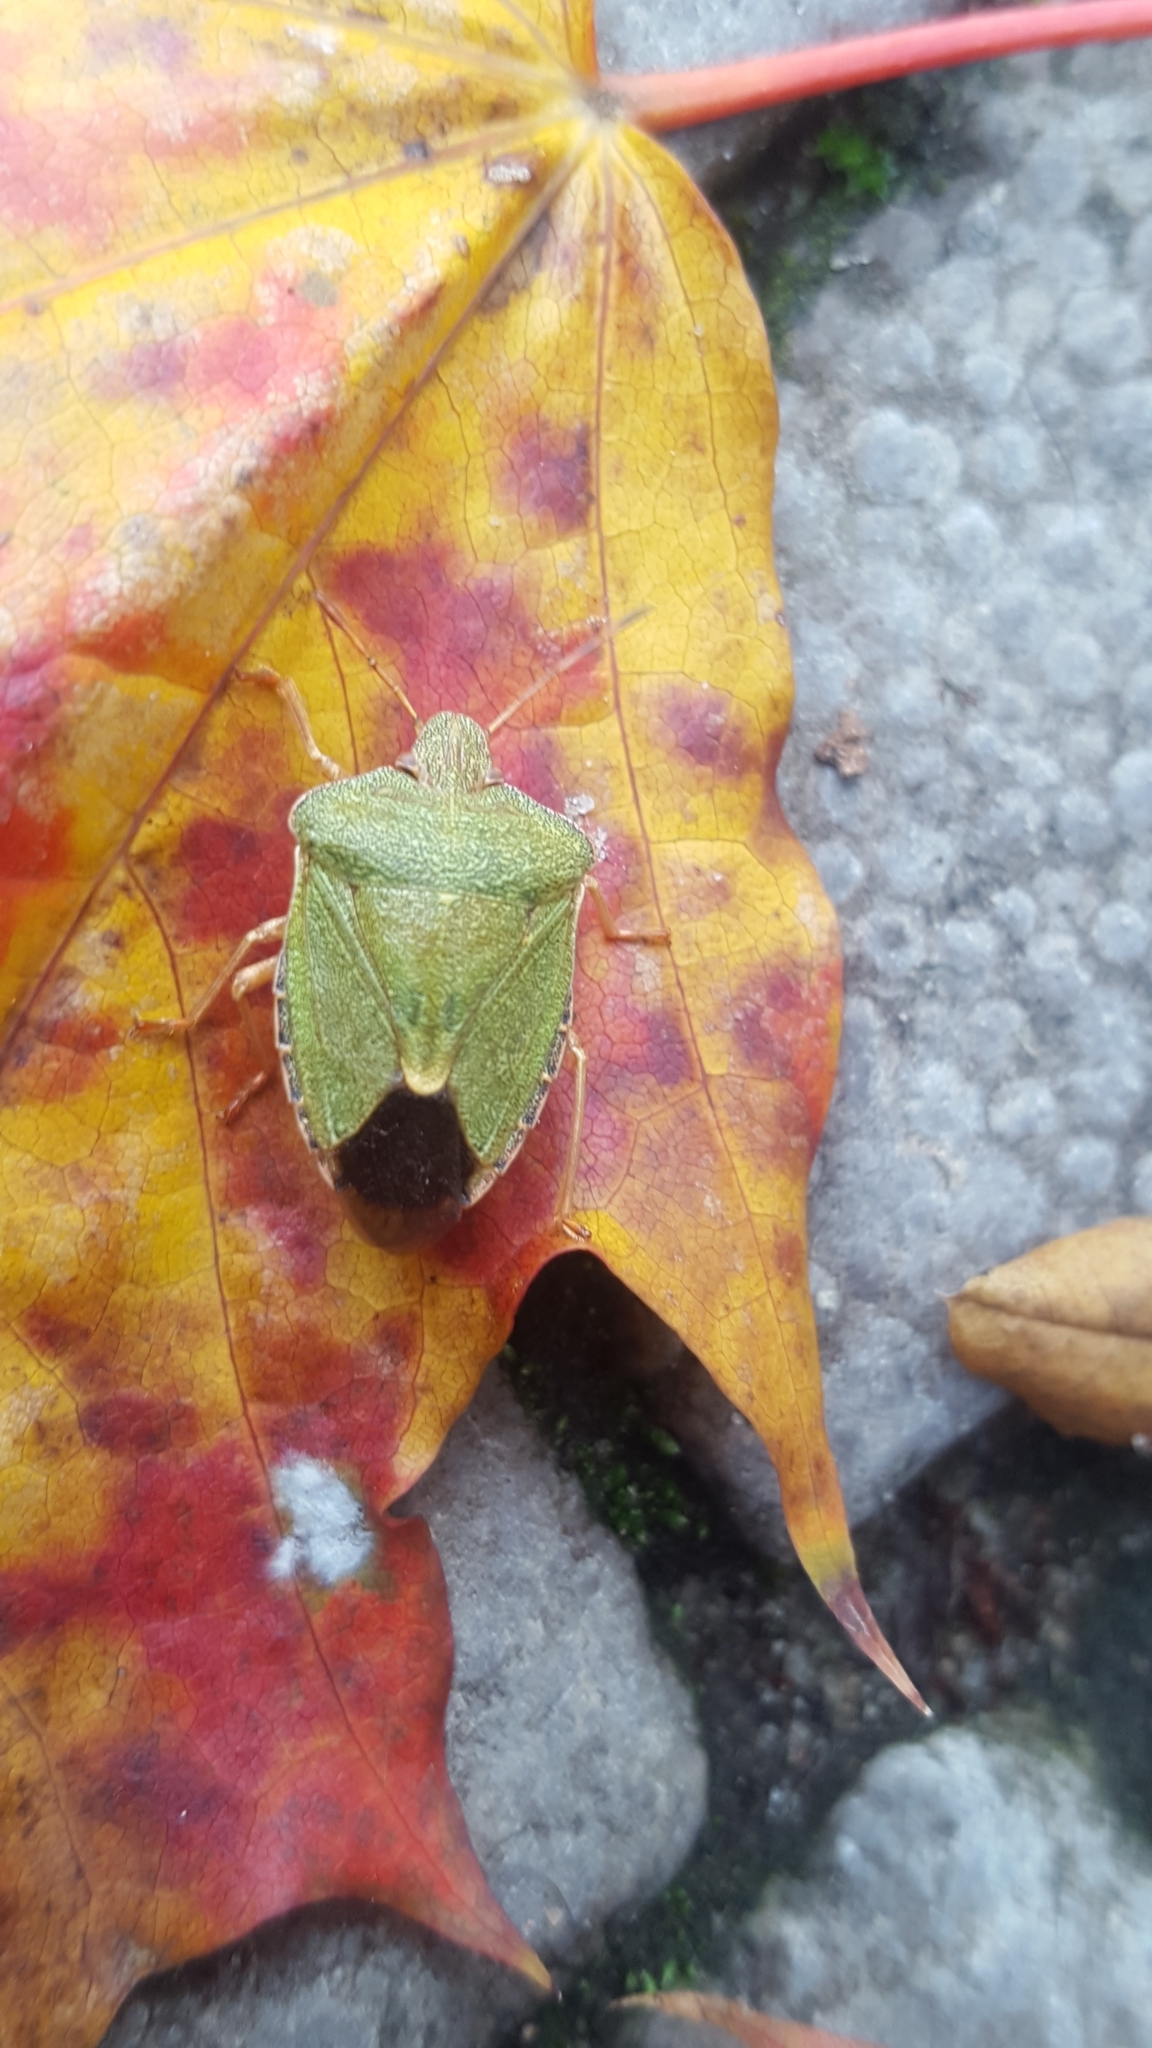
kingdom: Animalia
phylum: Arthropoda
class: Insecta
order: Hemiptera
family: Pentatomidae
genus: Palomena
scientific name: Palomena prasina
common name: Green shieldbug
